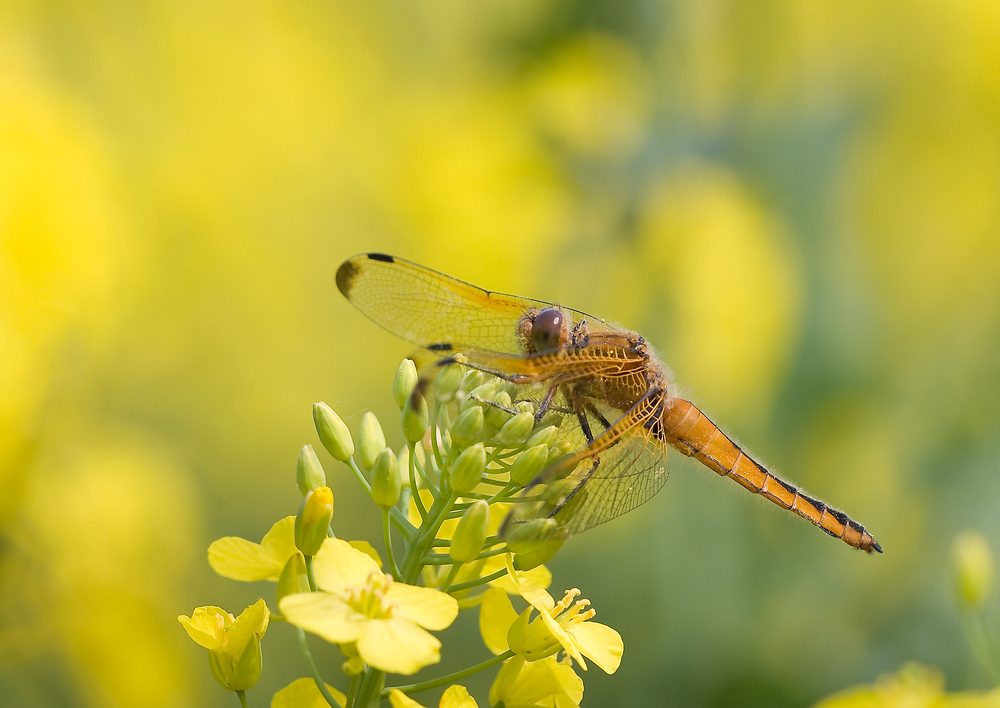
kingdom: Animalia
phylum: Arthropoda
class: Insecta
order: Odonata
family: Libellulidae
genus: Libellula
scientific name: Libellula fulva
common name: Blue chaser
